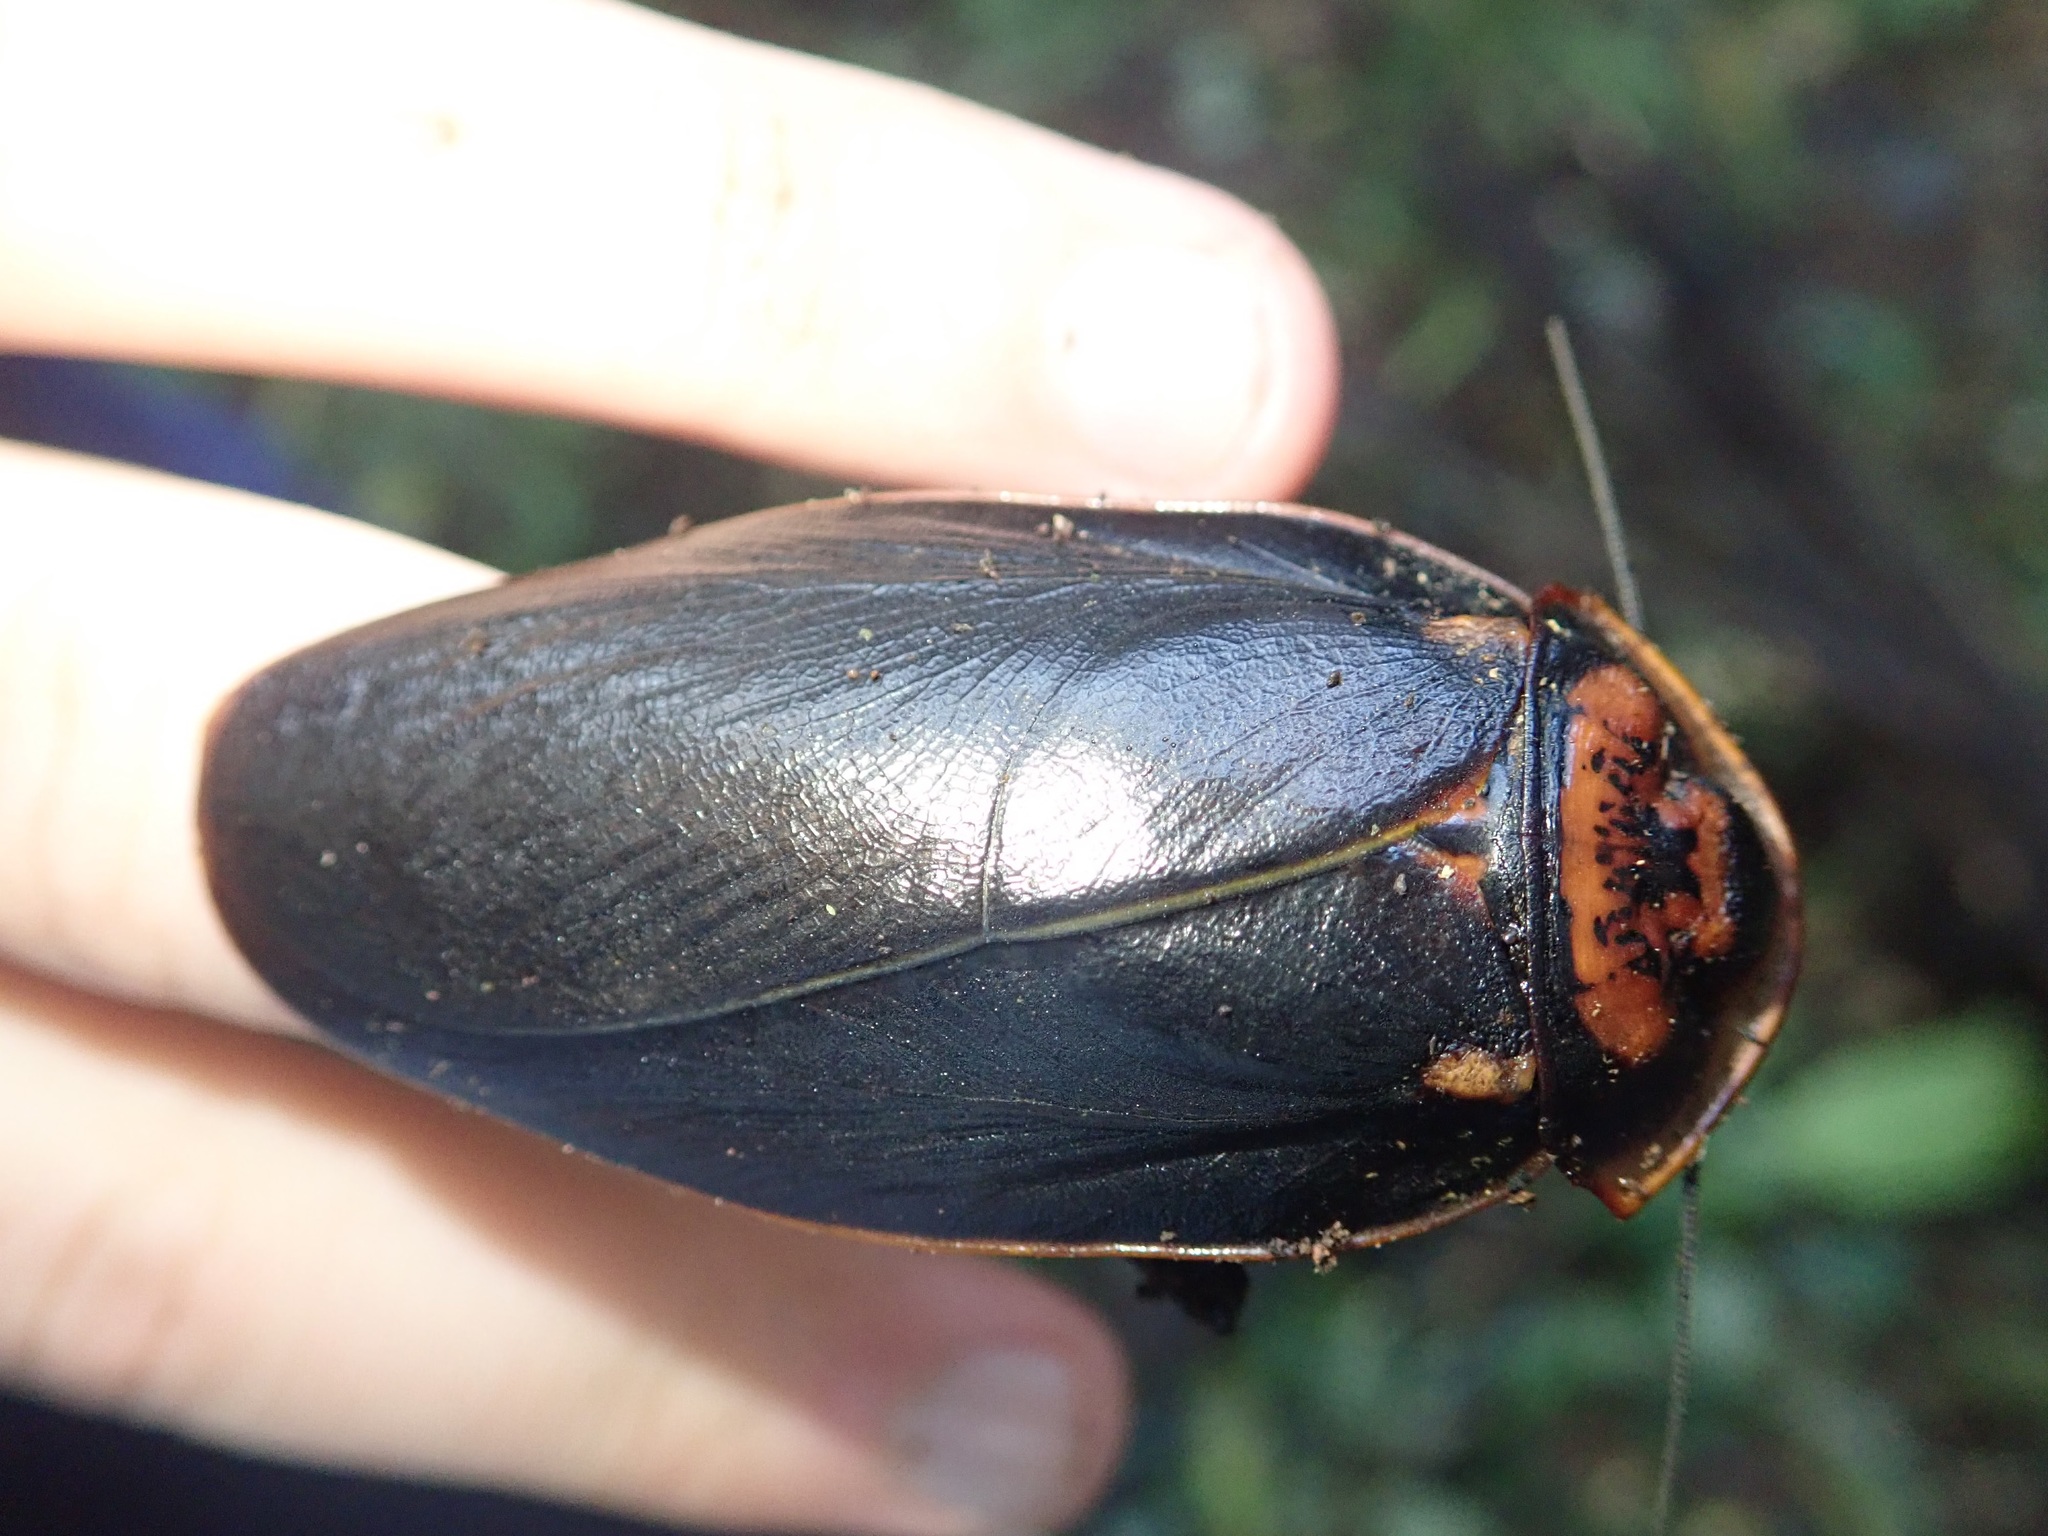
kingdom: Animalia
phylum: Arthropoda
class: Insecta
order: Blattodea
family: Blaberidae
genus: Monastria
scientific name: Monastria similis
